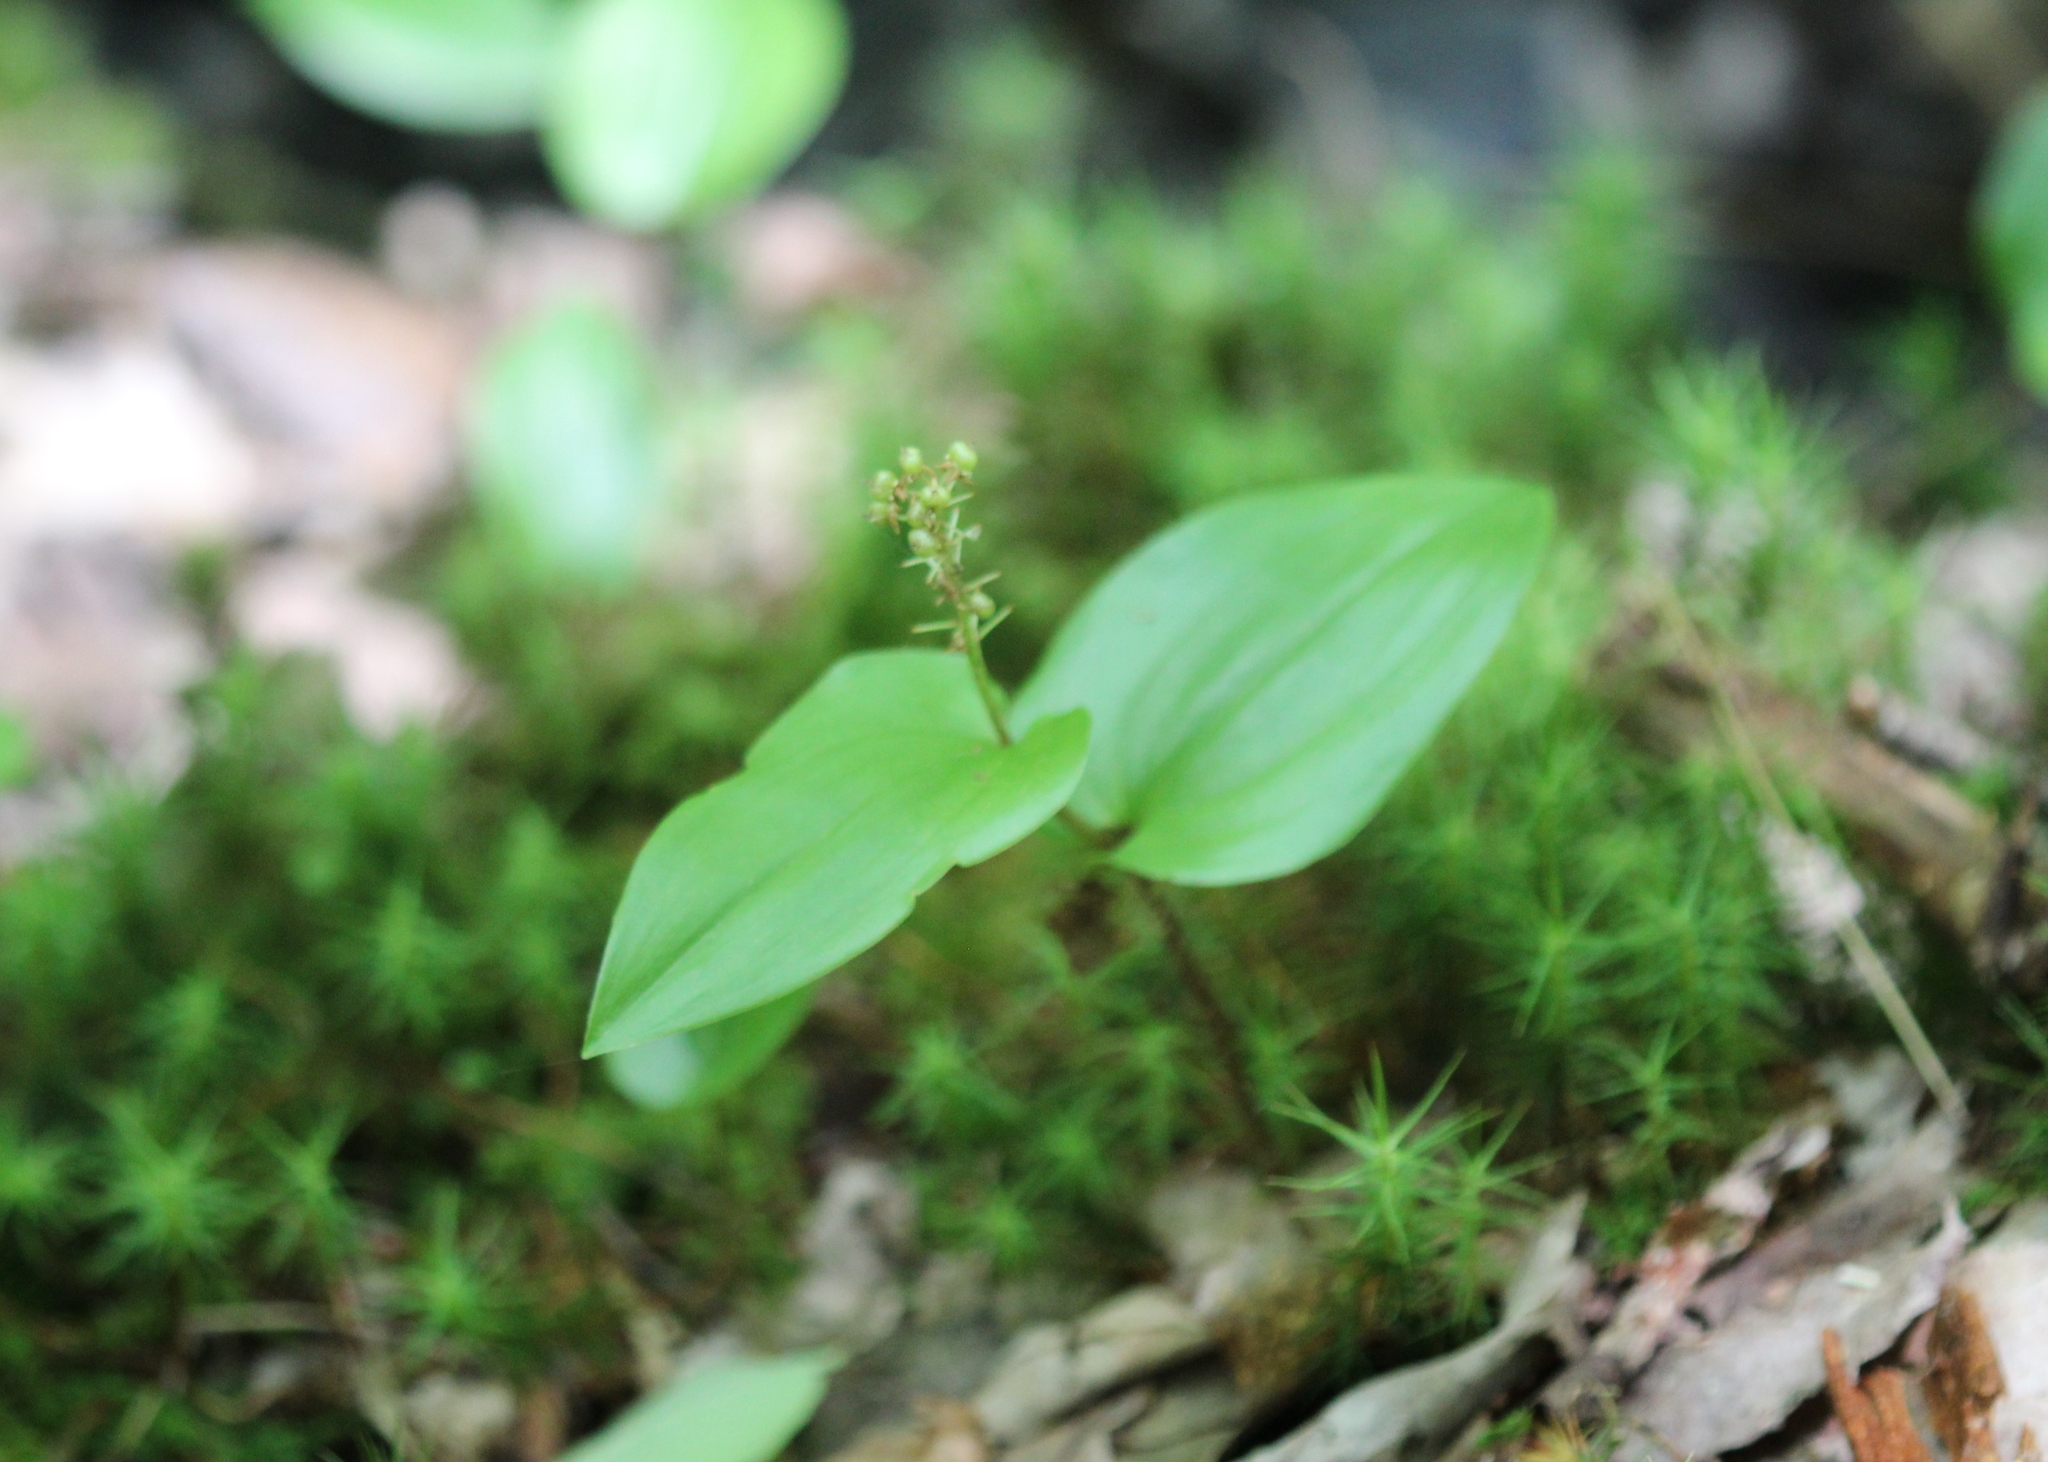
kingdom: Plantae
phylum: Tracheophyta
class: Liliopsida
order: Asparagales
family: Asparagaceae
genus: Maianthemum
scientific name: Maianthemum canadense
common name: False lily-of-the-valley
